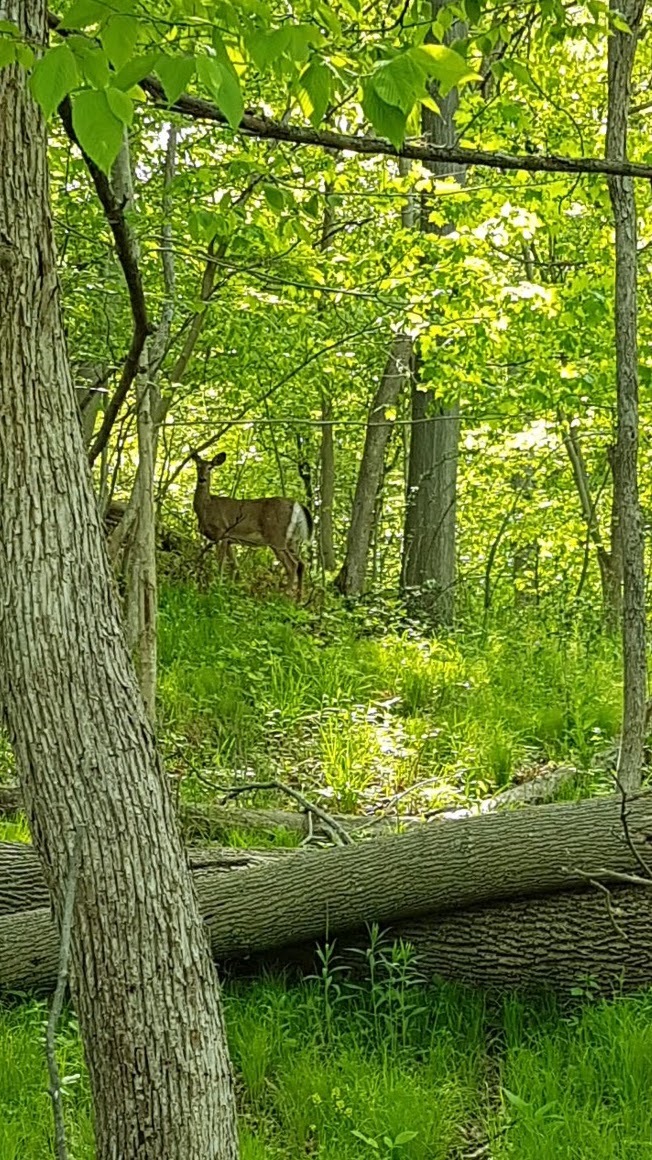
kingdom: Animalia
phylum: Chordata
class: Mammalia
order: Artiodactyla
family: Cervidae
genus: Odocoileus
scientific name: Odocoileus virginianus
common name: White-tailed deer
